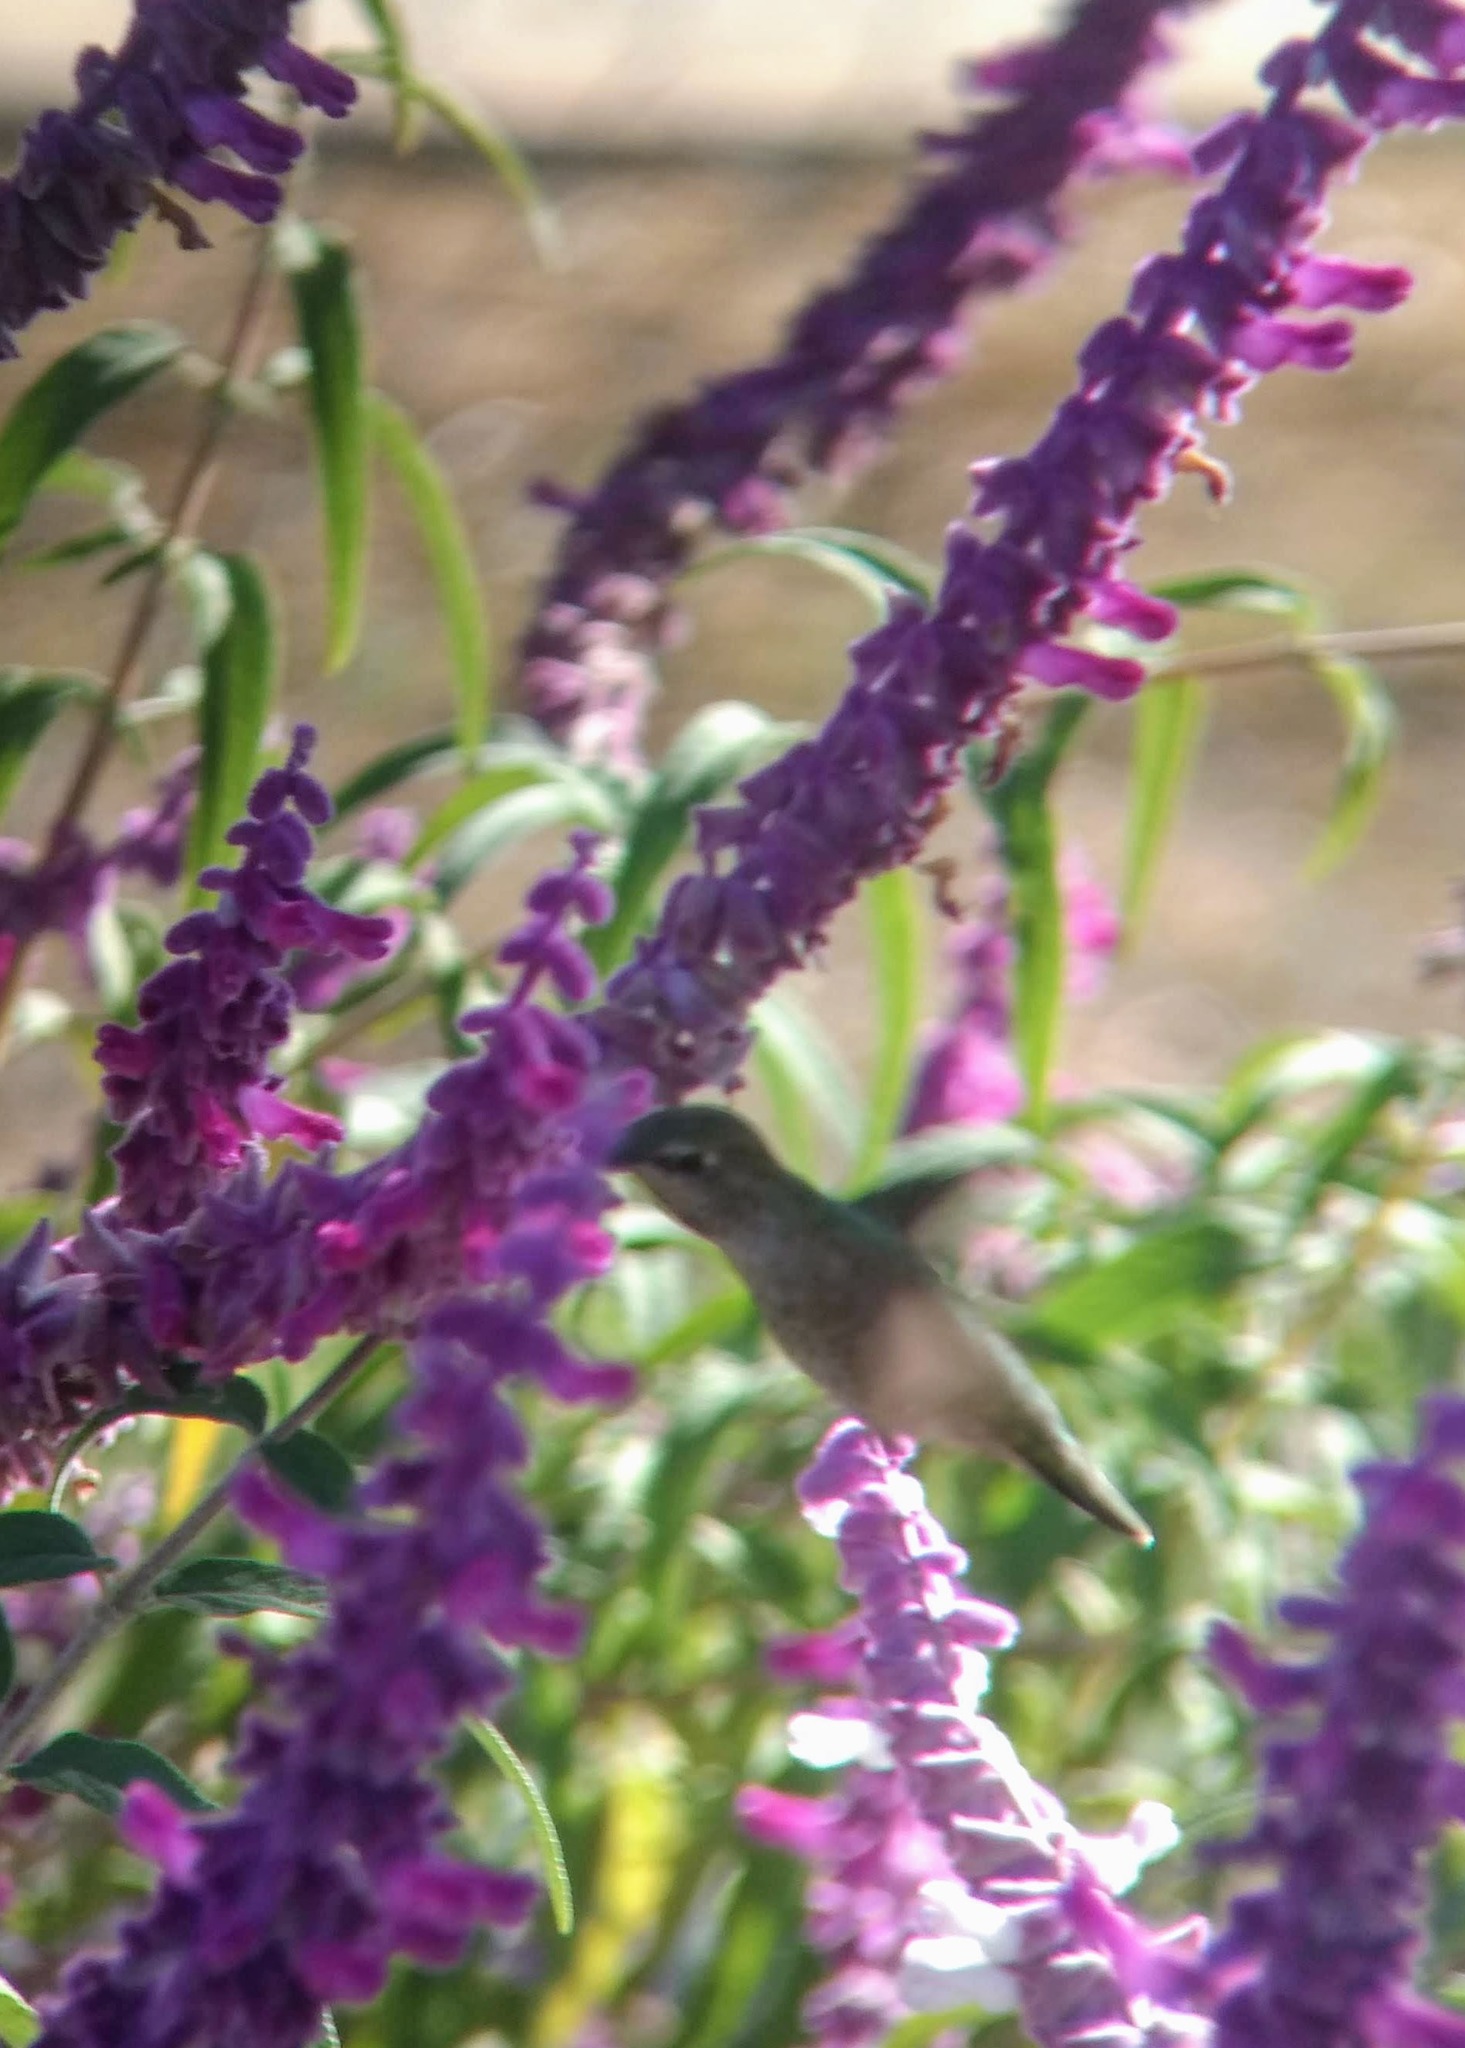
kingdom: Animalia
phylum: Chordata
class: Aves
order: Apodiformes
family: Trochilidae
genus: Calypte
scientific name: Calypte anna
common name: Anna's hummingbird
